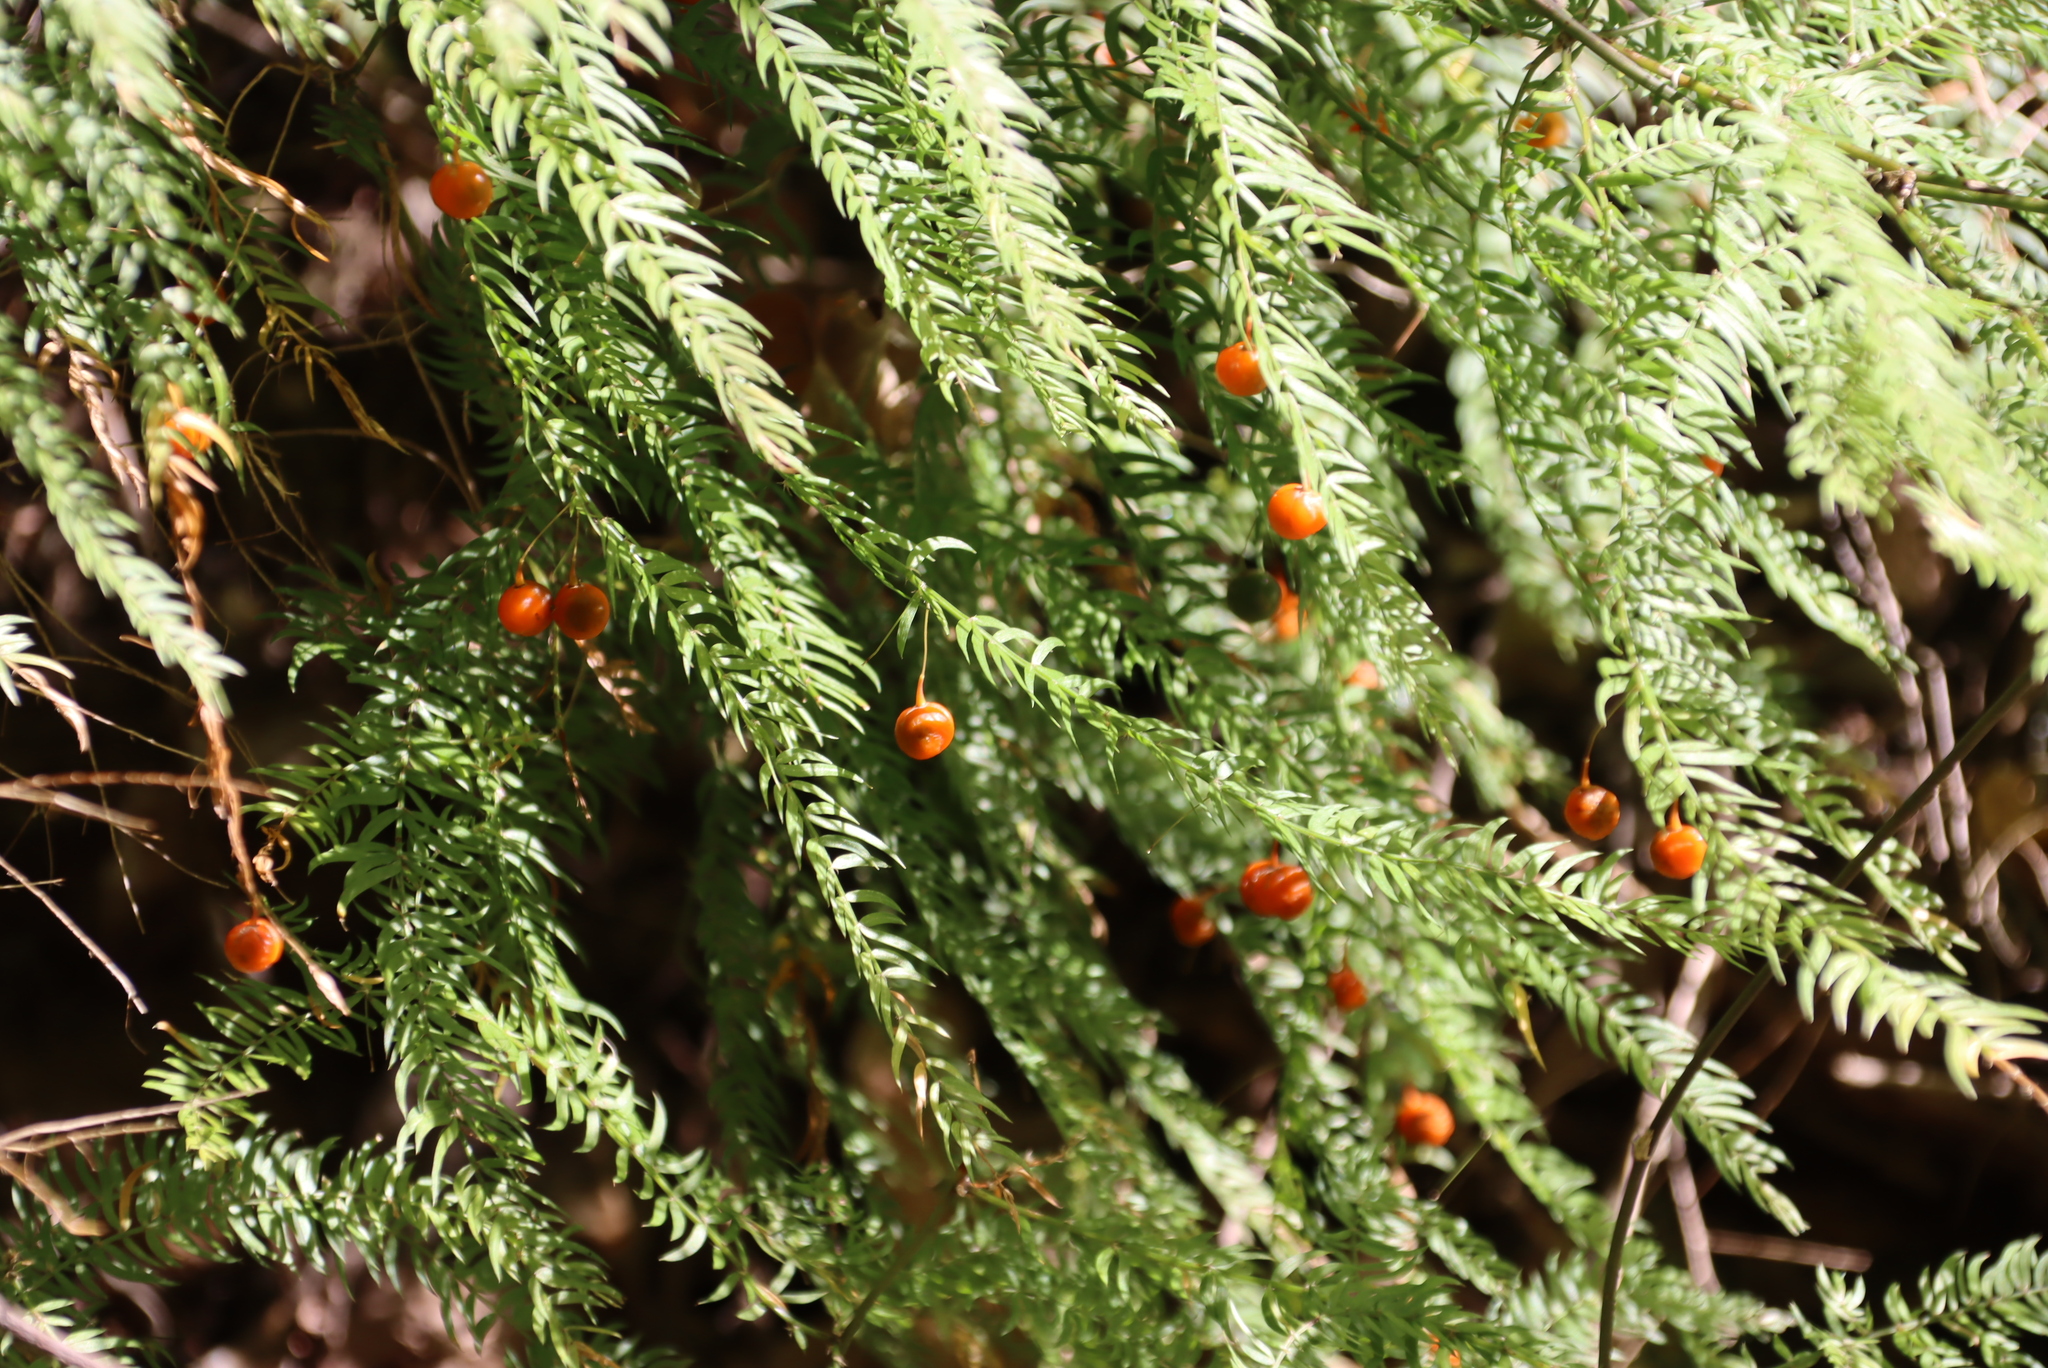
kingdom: Plantae
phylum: Tracheophyta
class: Liliopsida
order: Asparagales
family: Asparagaceae
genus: Asparagus
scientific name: Asparagus scandens
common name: Asparagus-fern
